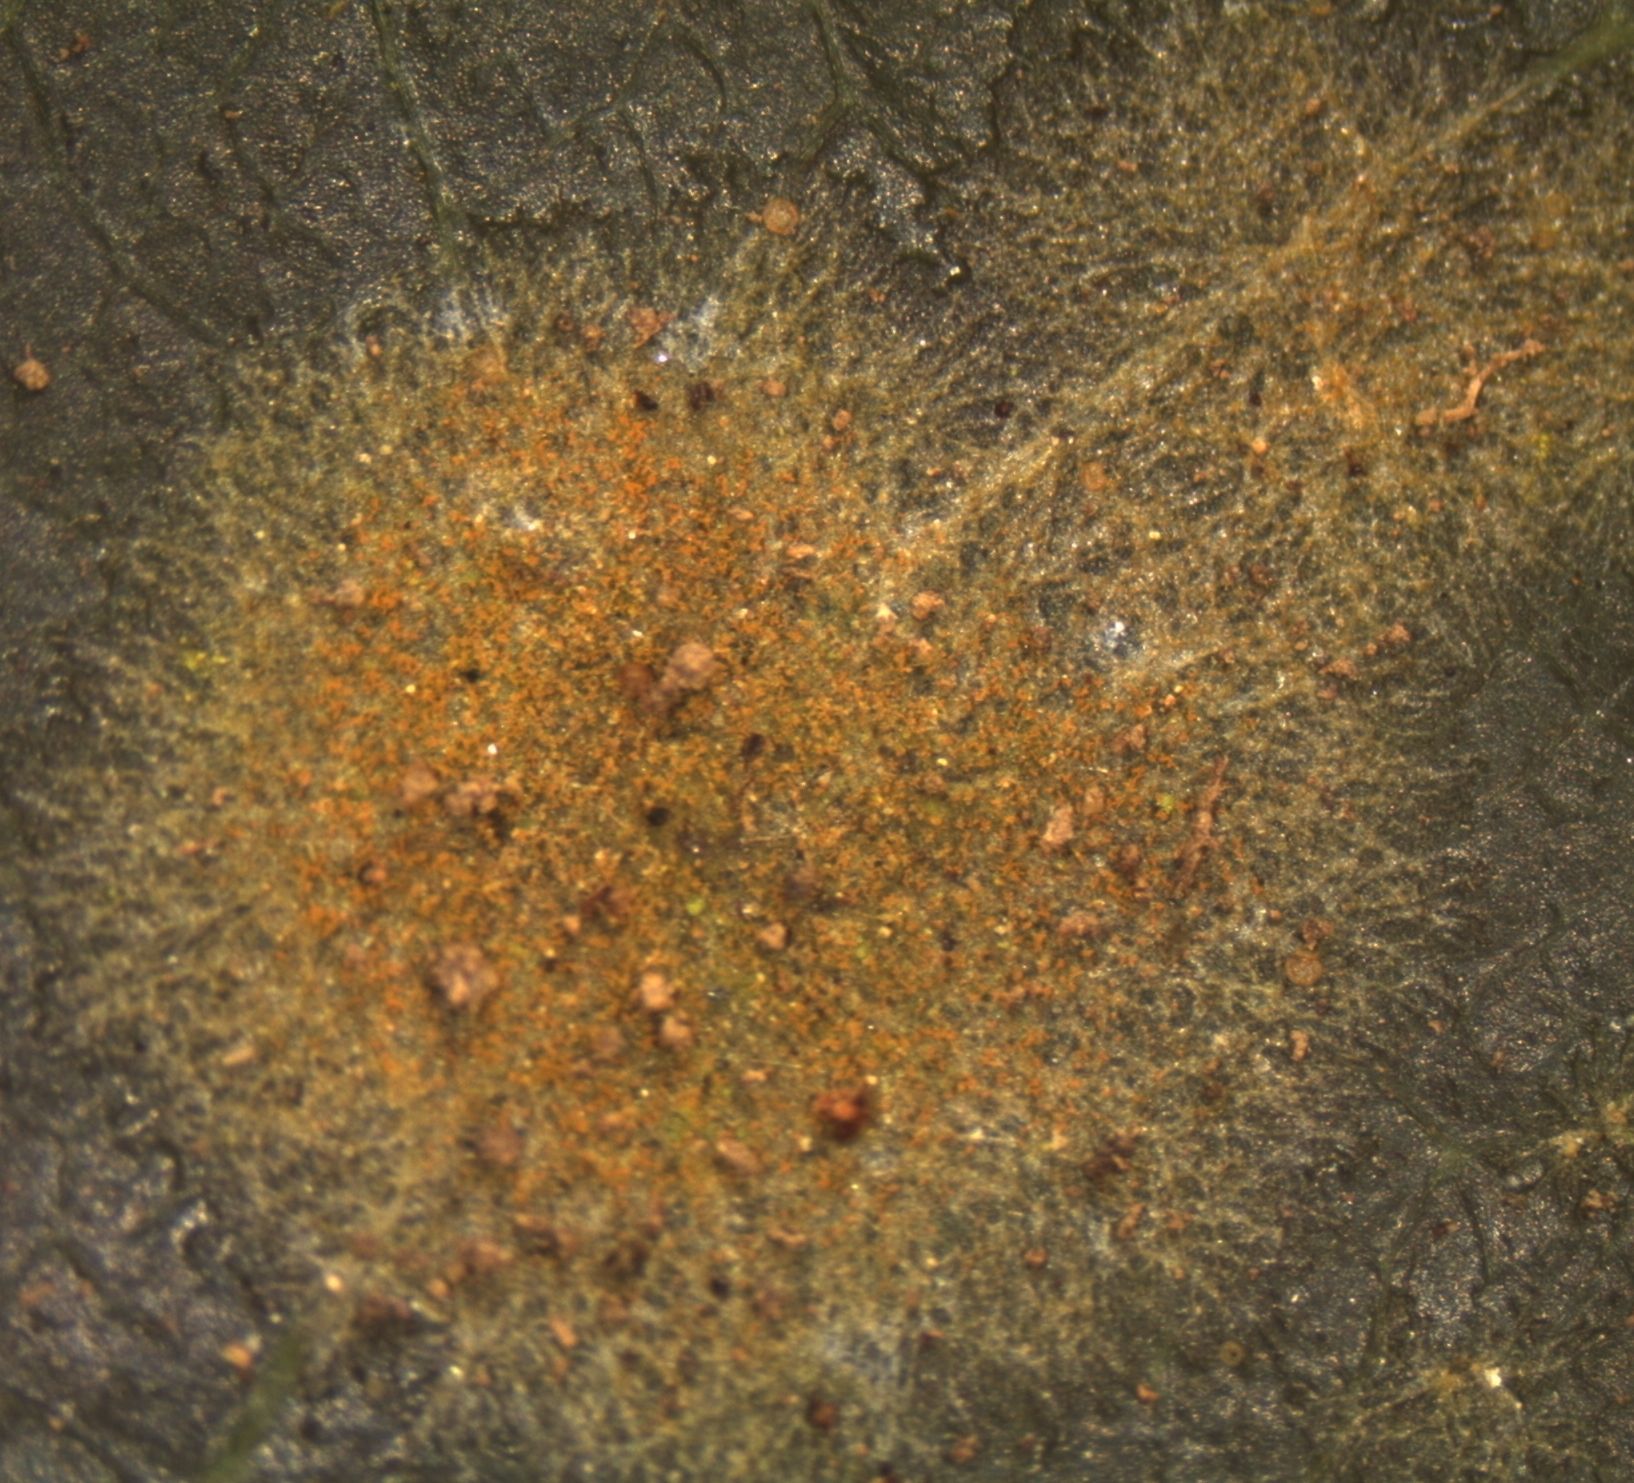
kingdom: Plantae
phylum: Chlorophyta
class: Ulvophyceae
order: Trentepohliales
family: Trentepohliaceae
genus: Cephaleuros
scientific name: Cephaleuros
